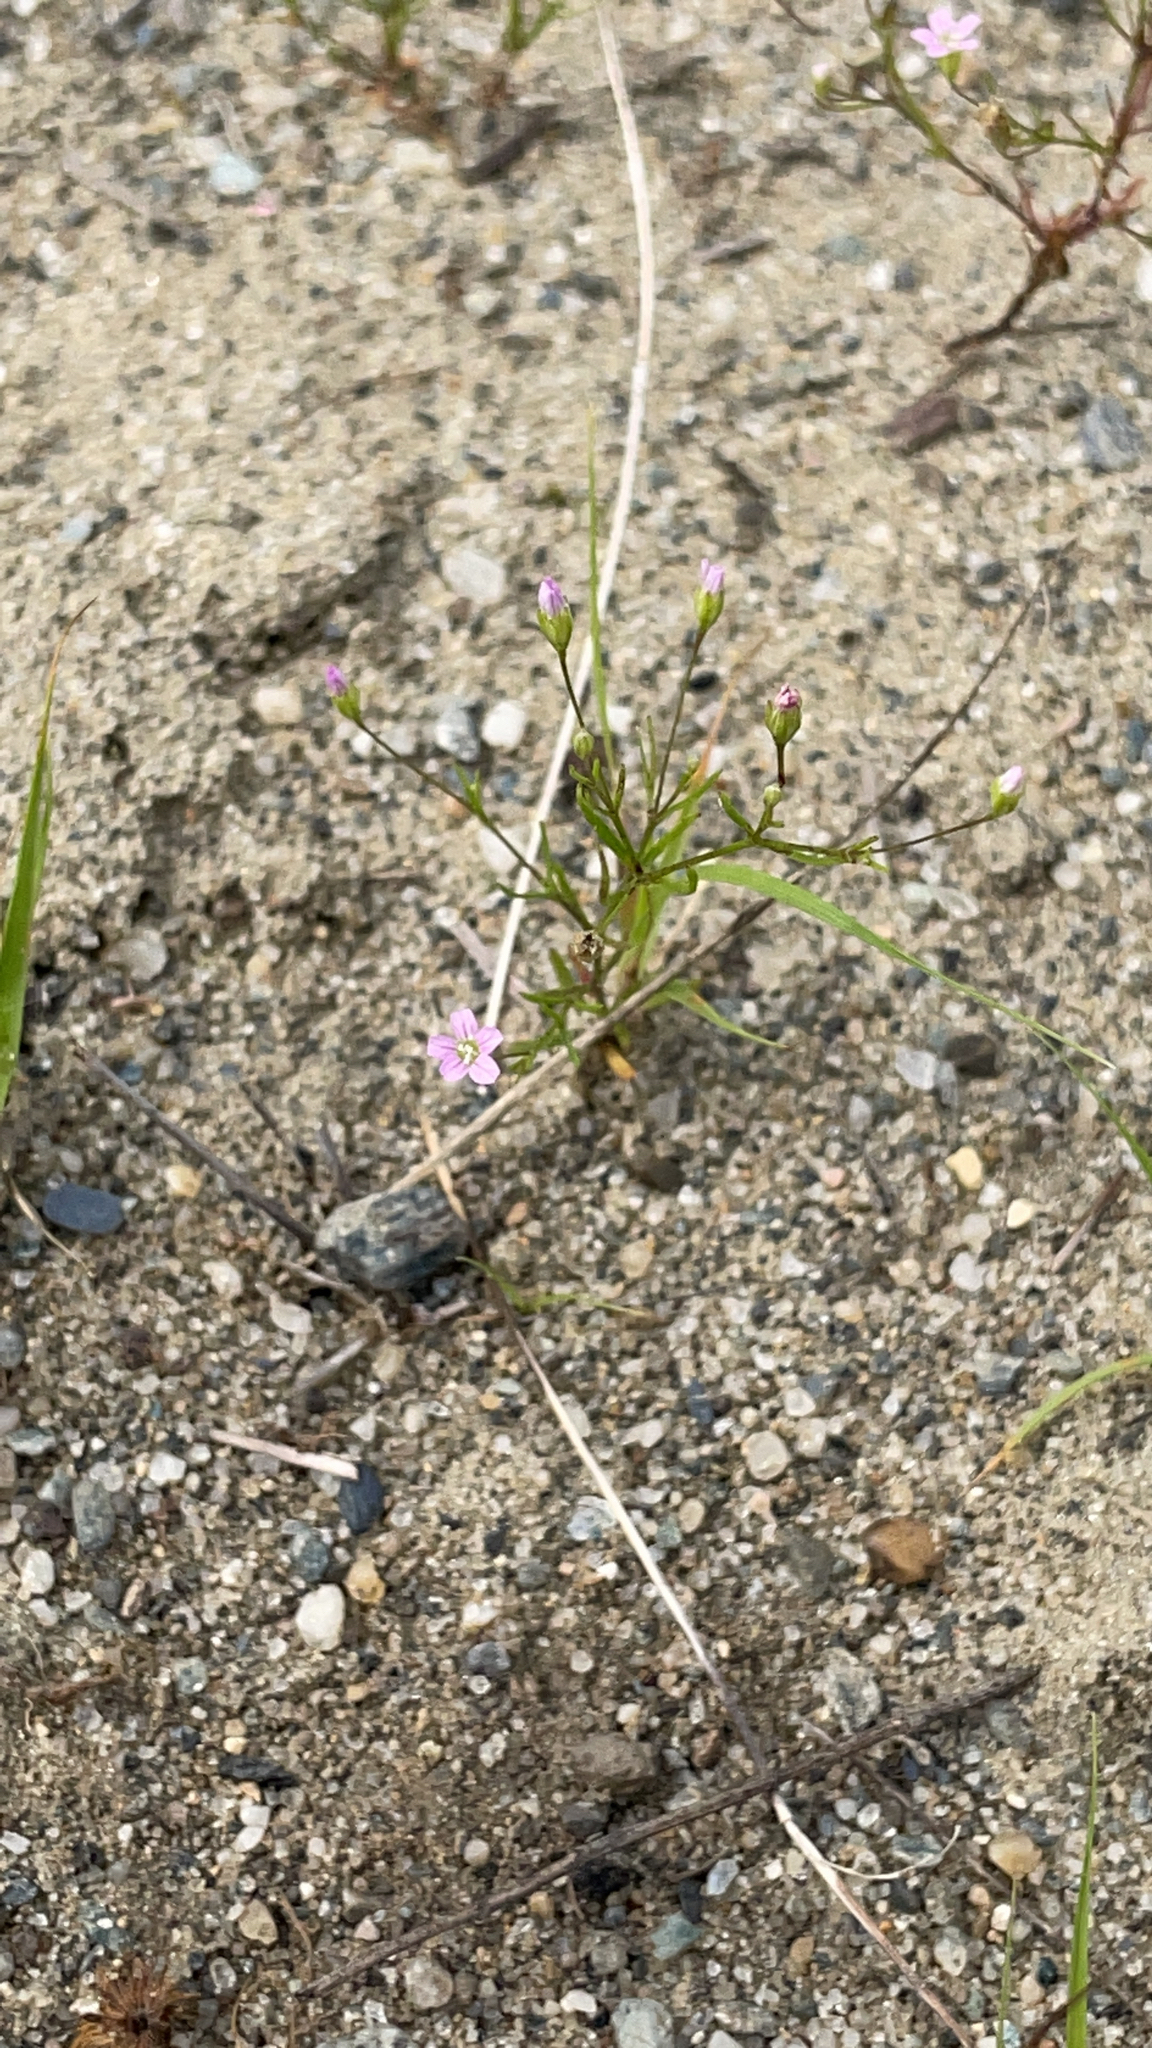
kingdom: Plantae
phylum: Tracheophyta
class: Magnoliopsida
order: Caryophyllales
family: Caryophyllaceae
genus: Psammophiliella
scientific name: Psammophiliella muralis
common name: Cushion baby's-breath
